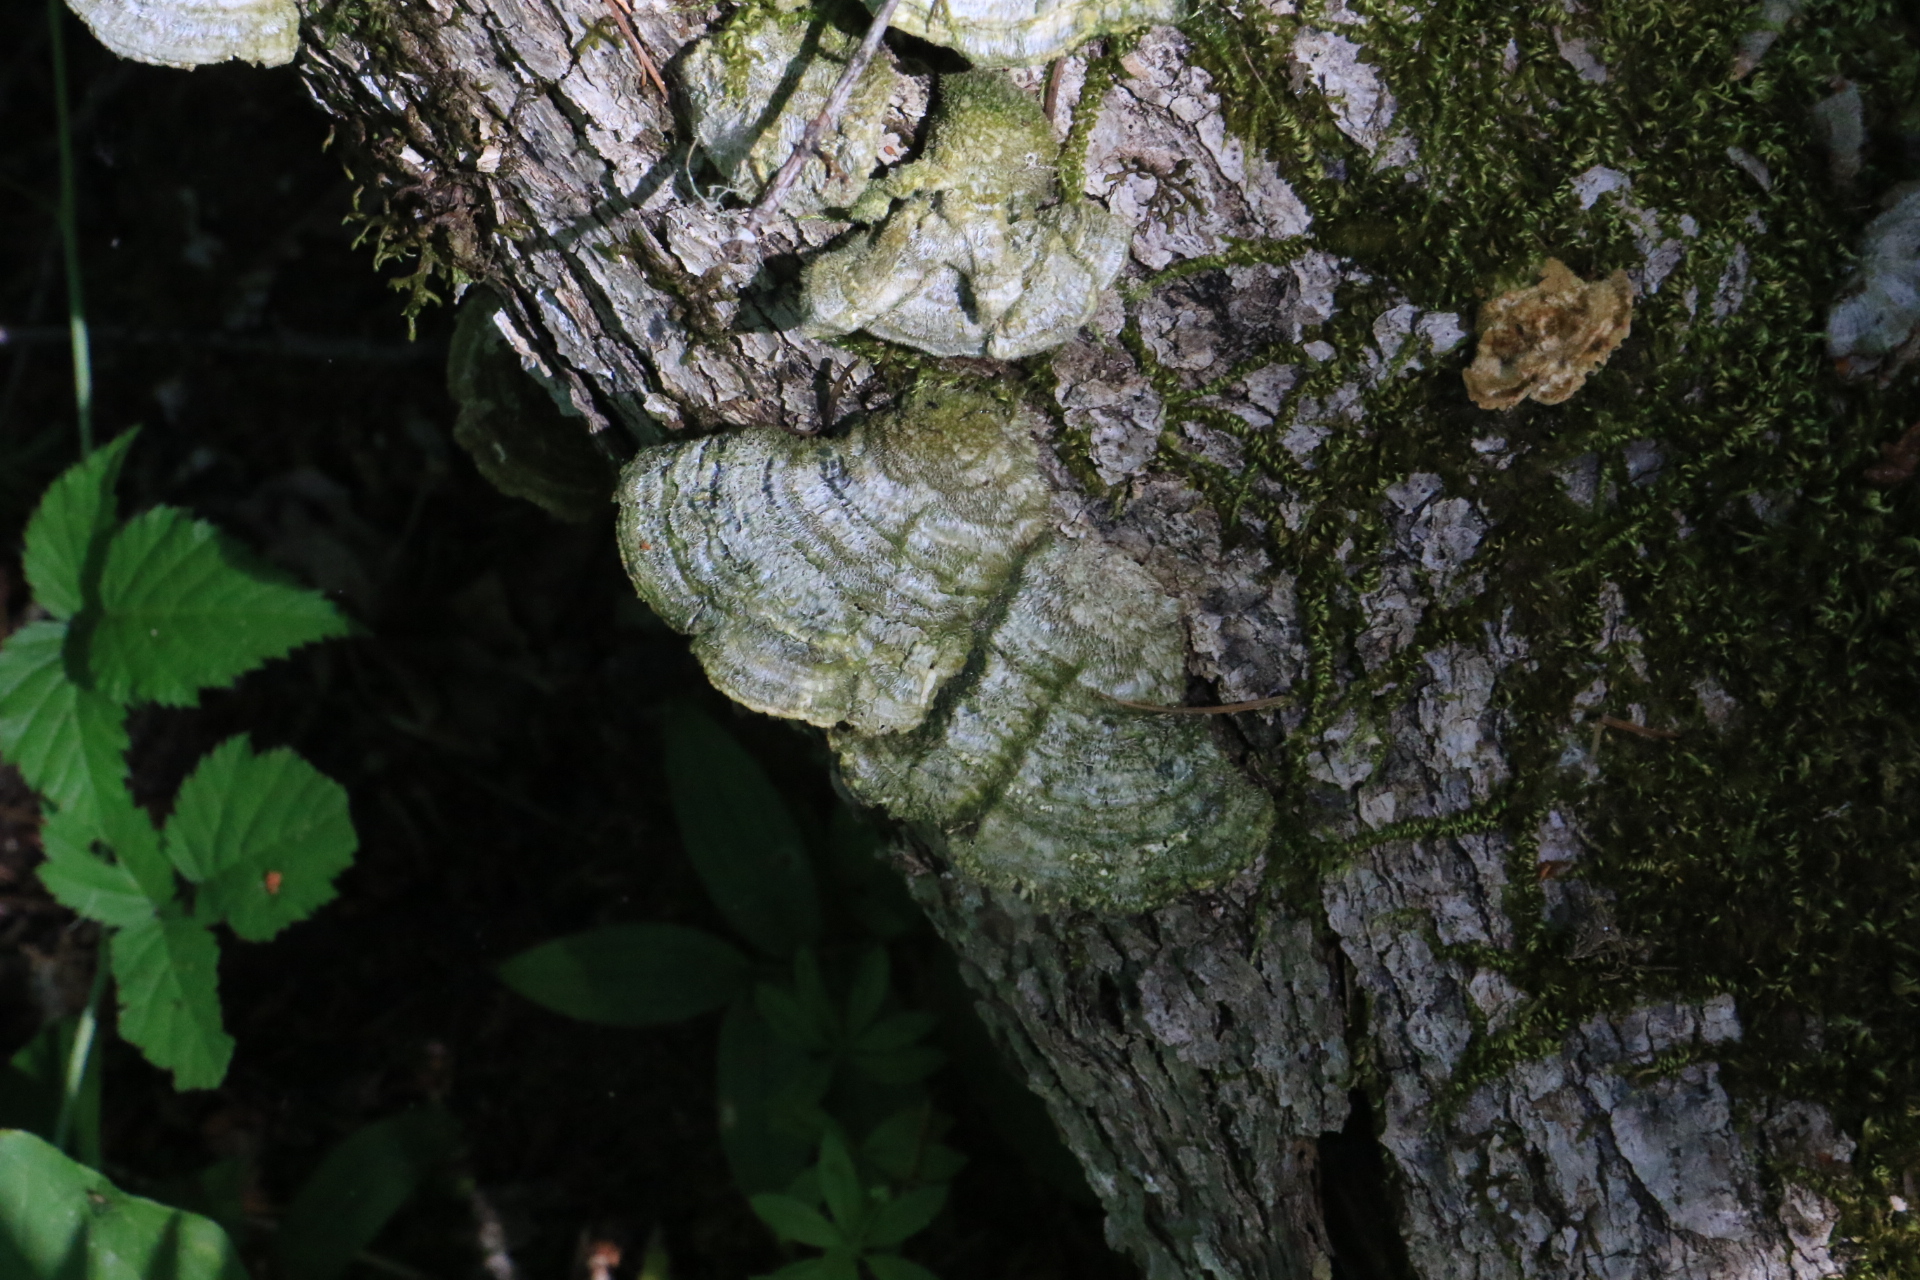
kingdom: Fungi
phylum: Basidiomycota
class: Agaricomycetes
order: Polyporales
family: Polyporaceae
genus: Lenzites
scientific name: Lenzites betulinus
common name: Birch mazegill
